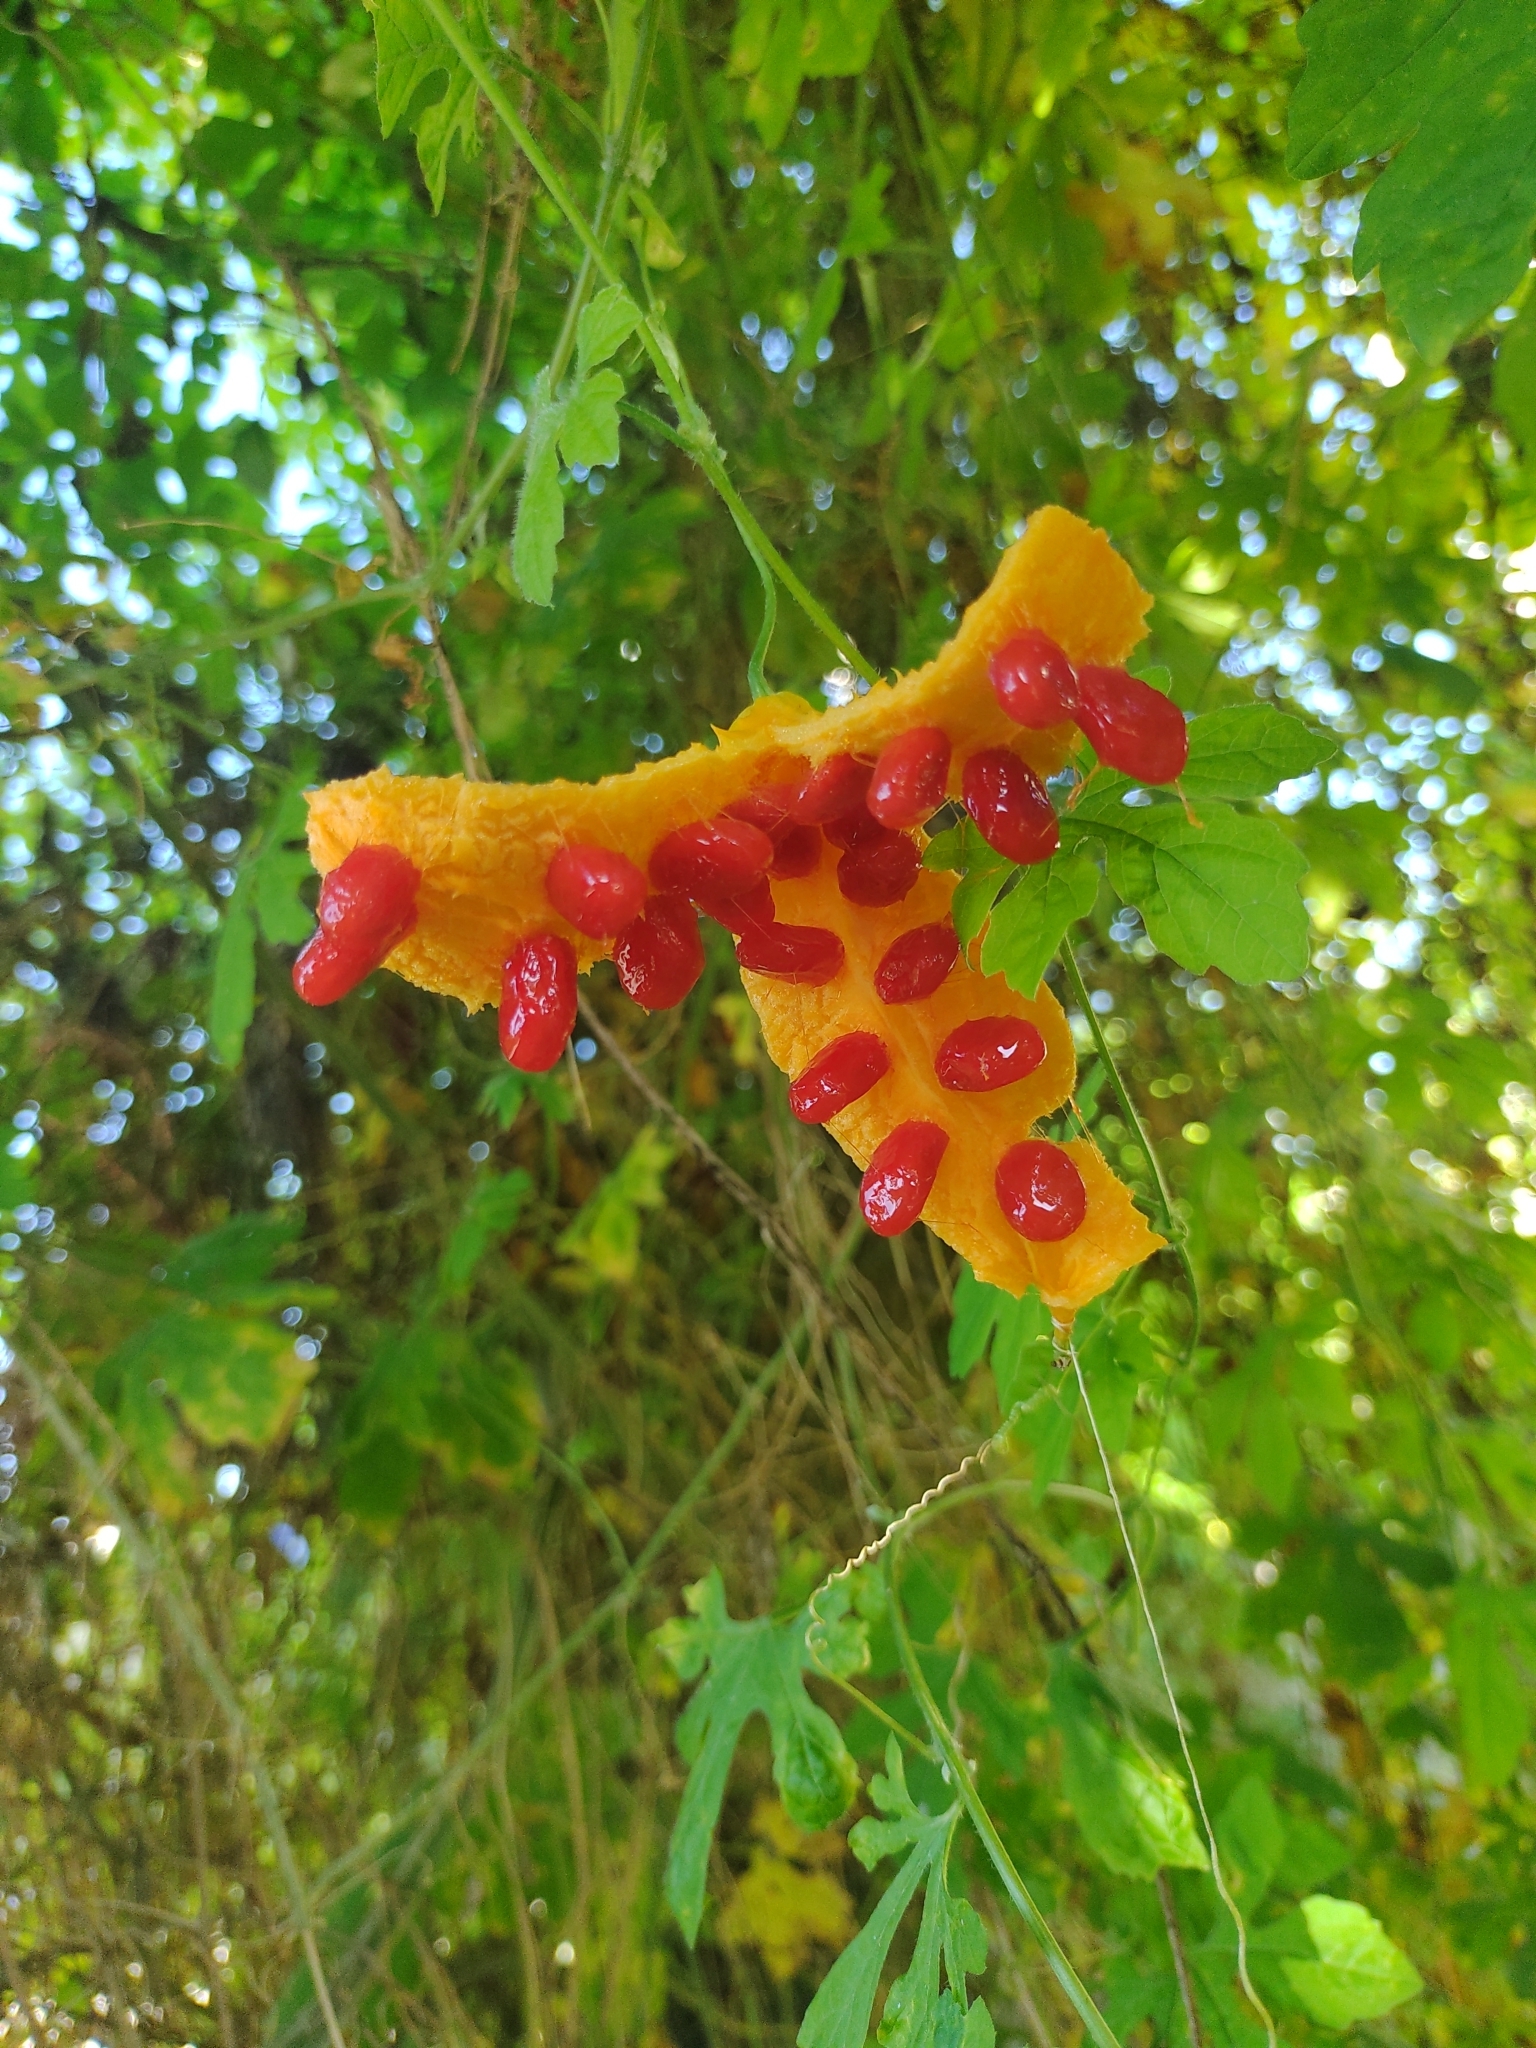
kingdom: Plantae
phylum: Tracheophyta
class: Magnoliopsida
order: Cucurbitales
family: Cucurbitaceae
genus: Momordica
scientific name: Momordica charantia
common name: Balsampear
